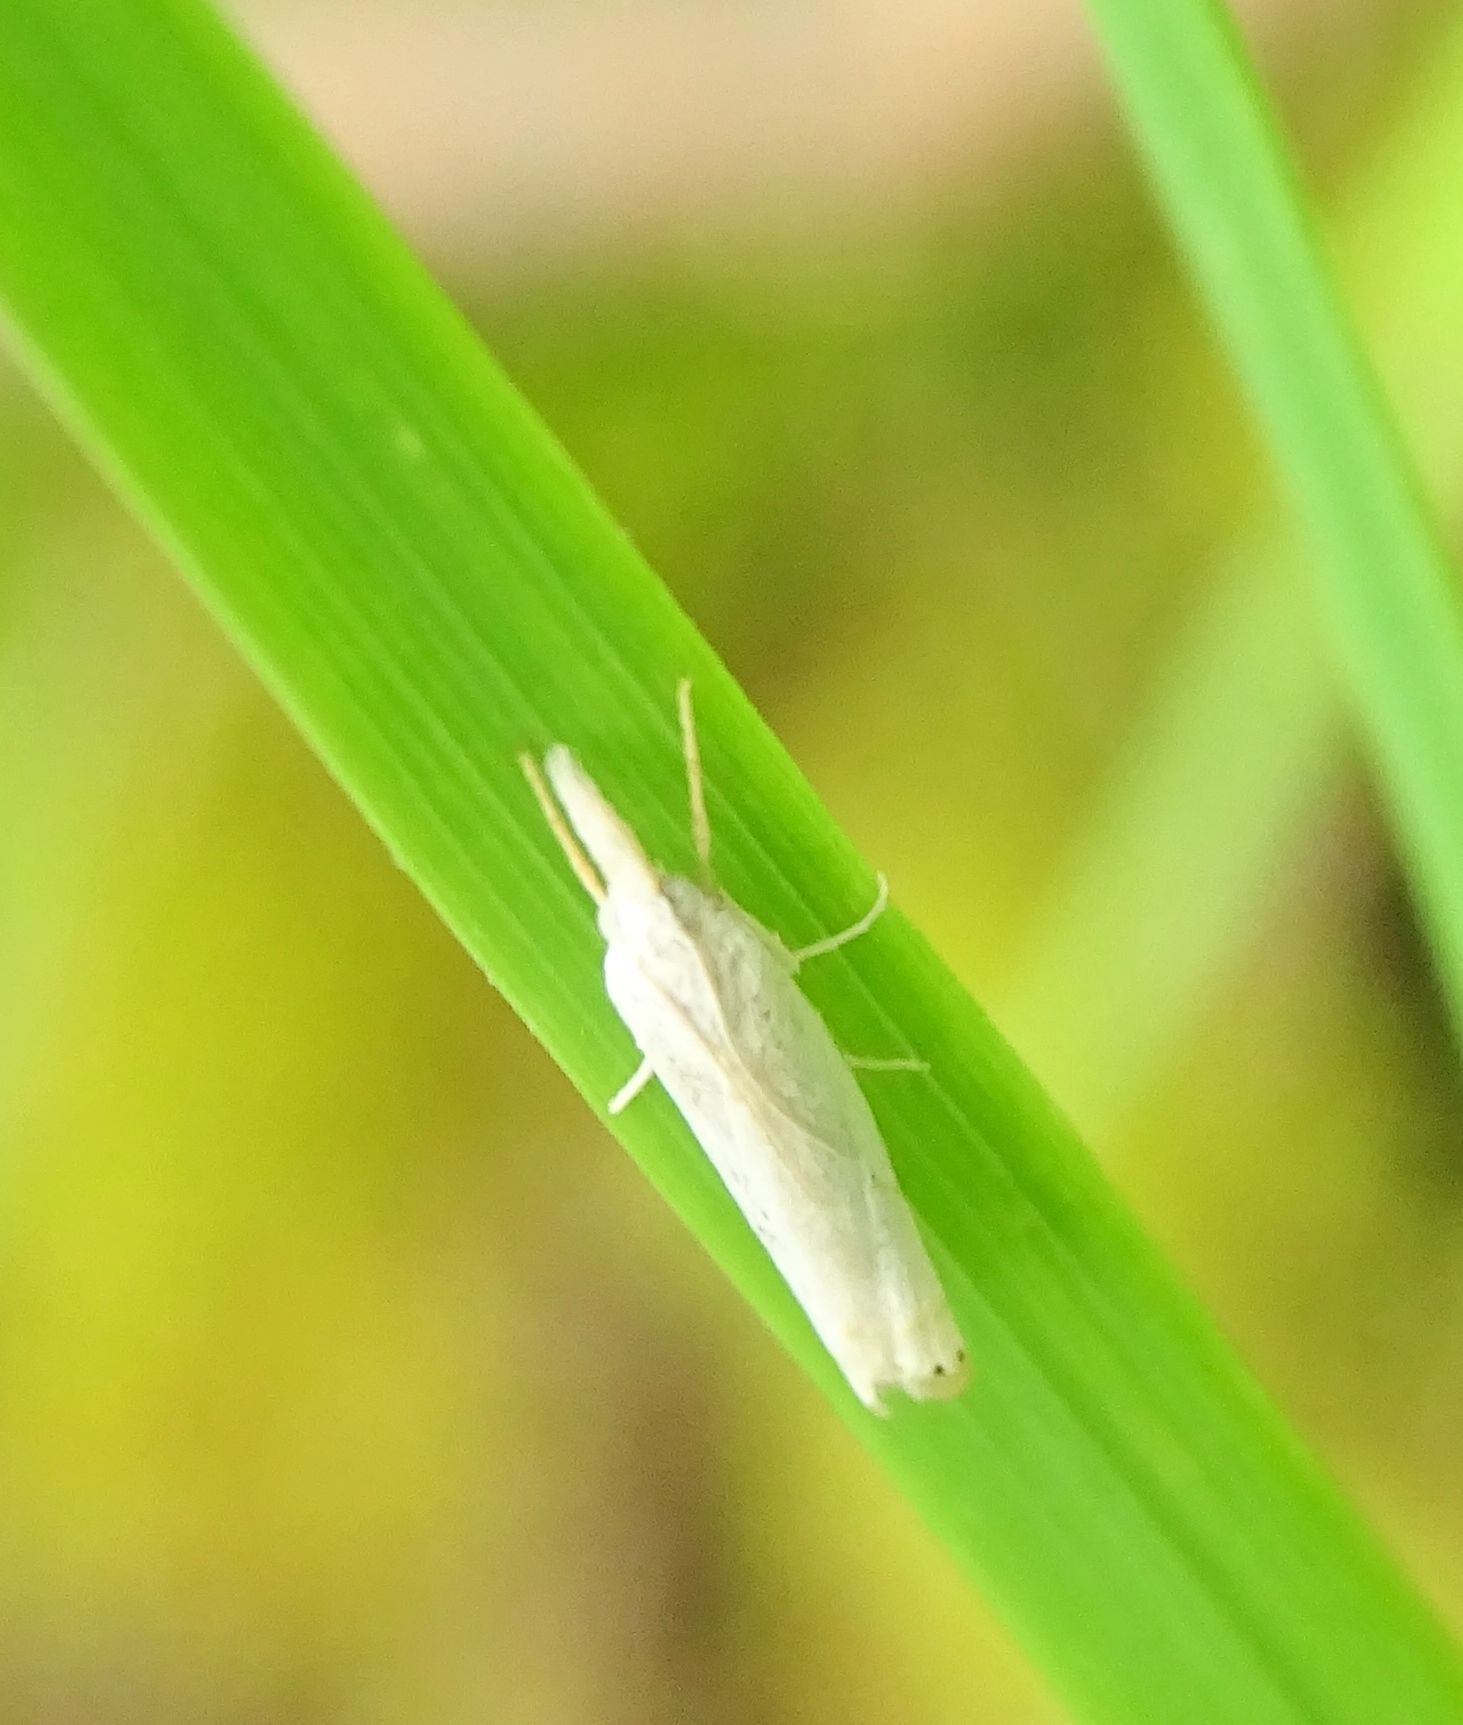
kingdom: Animalia
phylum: Arthropoda
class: Insecta
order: Lepidoptera
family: Crambidae
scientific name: Crambidae
